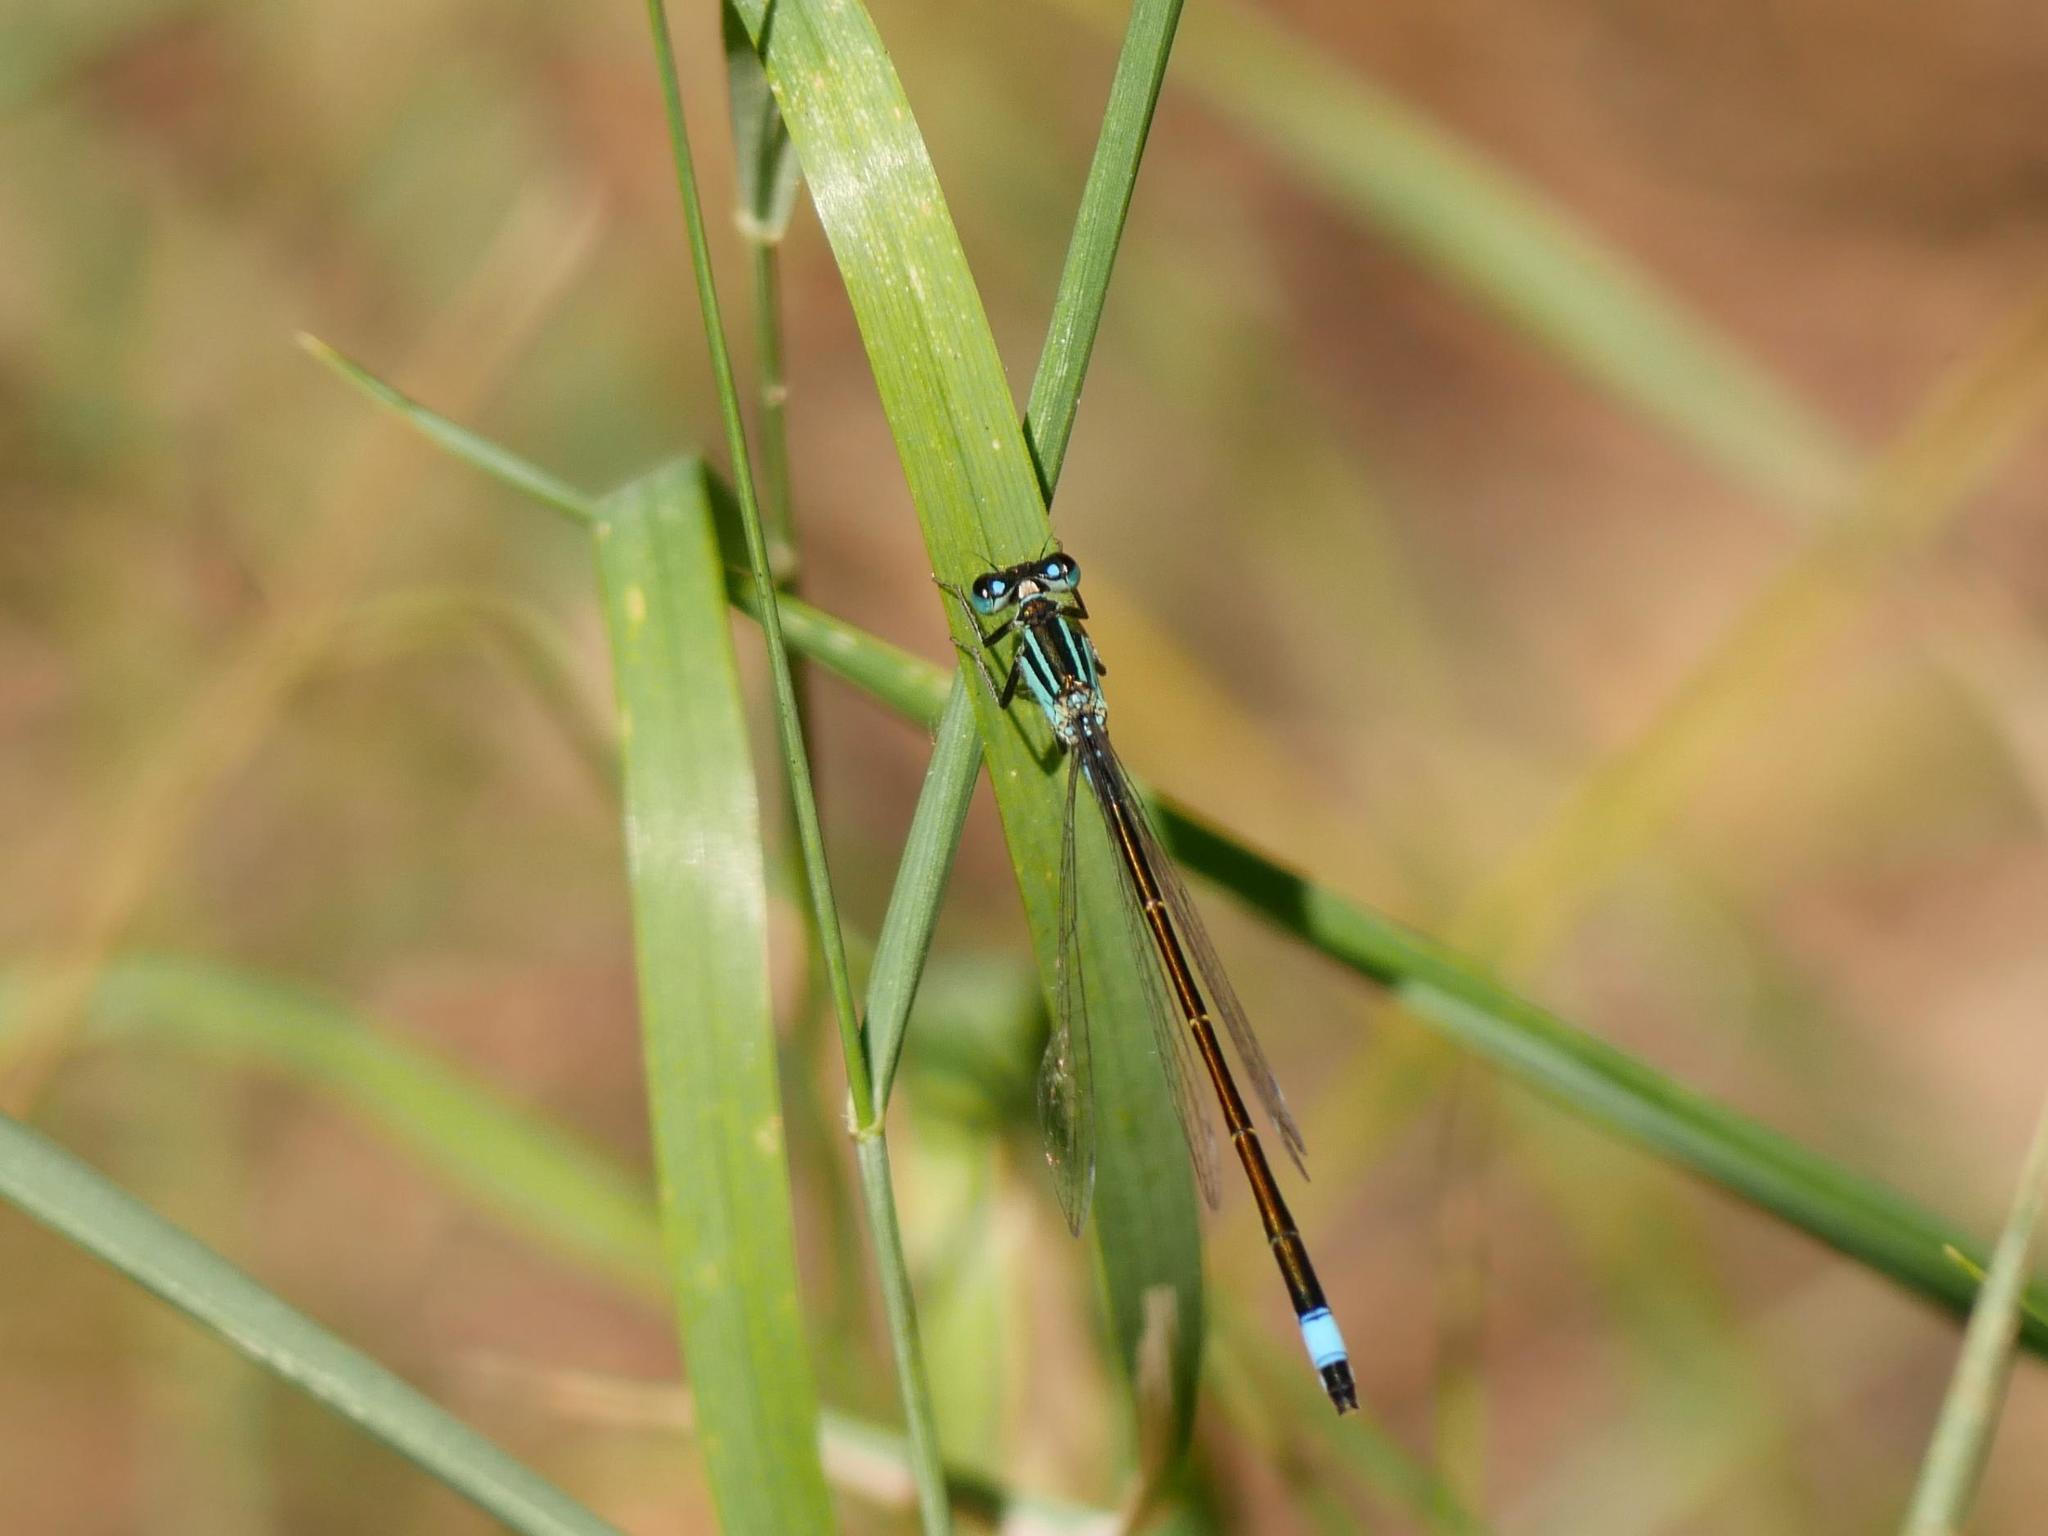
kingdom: Animalia
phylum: Arthropoda
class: Insecta
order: Odonata
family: Coenagrionidae
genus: Ischnura
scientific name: Ischnura elegans
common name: Blue-tailed damselfly
